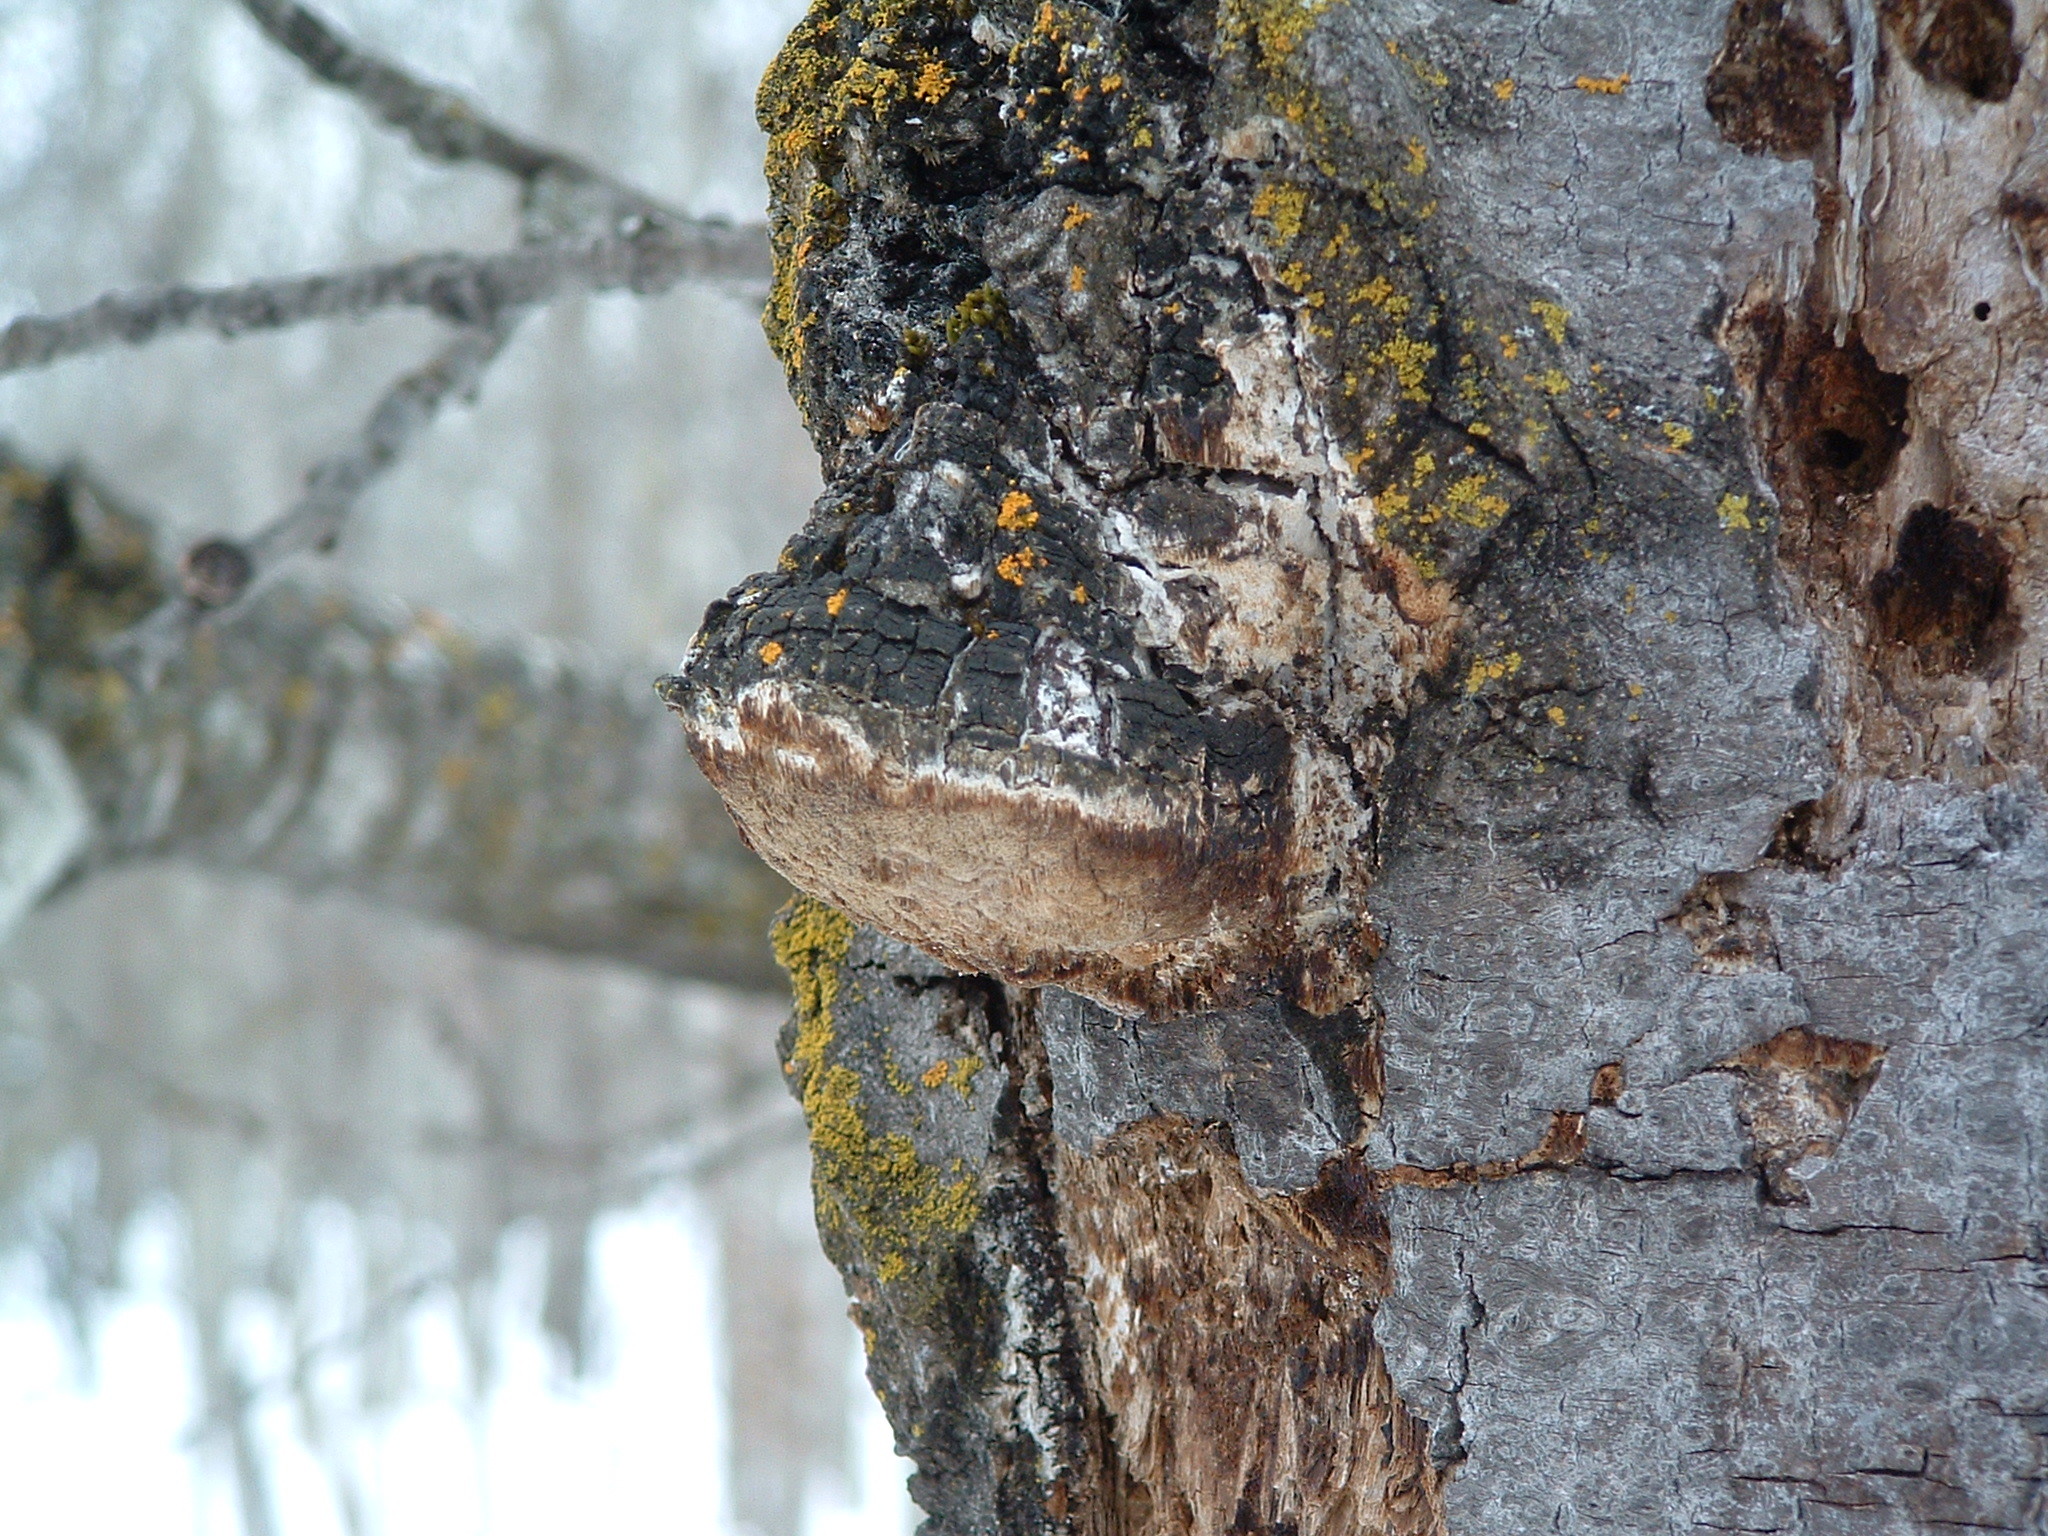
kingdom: Fungi
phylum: Basidiomycota
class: Agaricomycetes
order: Hymenochaetales
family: Hymenochaetaceae
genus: Phellinus
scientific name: Phellinus tremulae
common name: Aspen bracket
